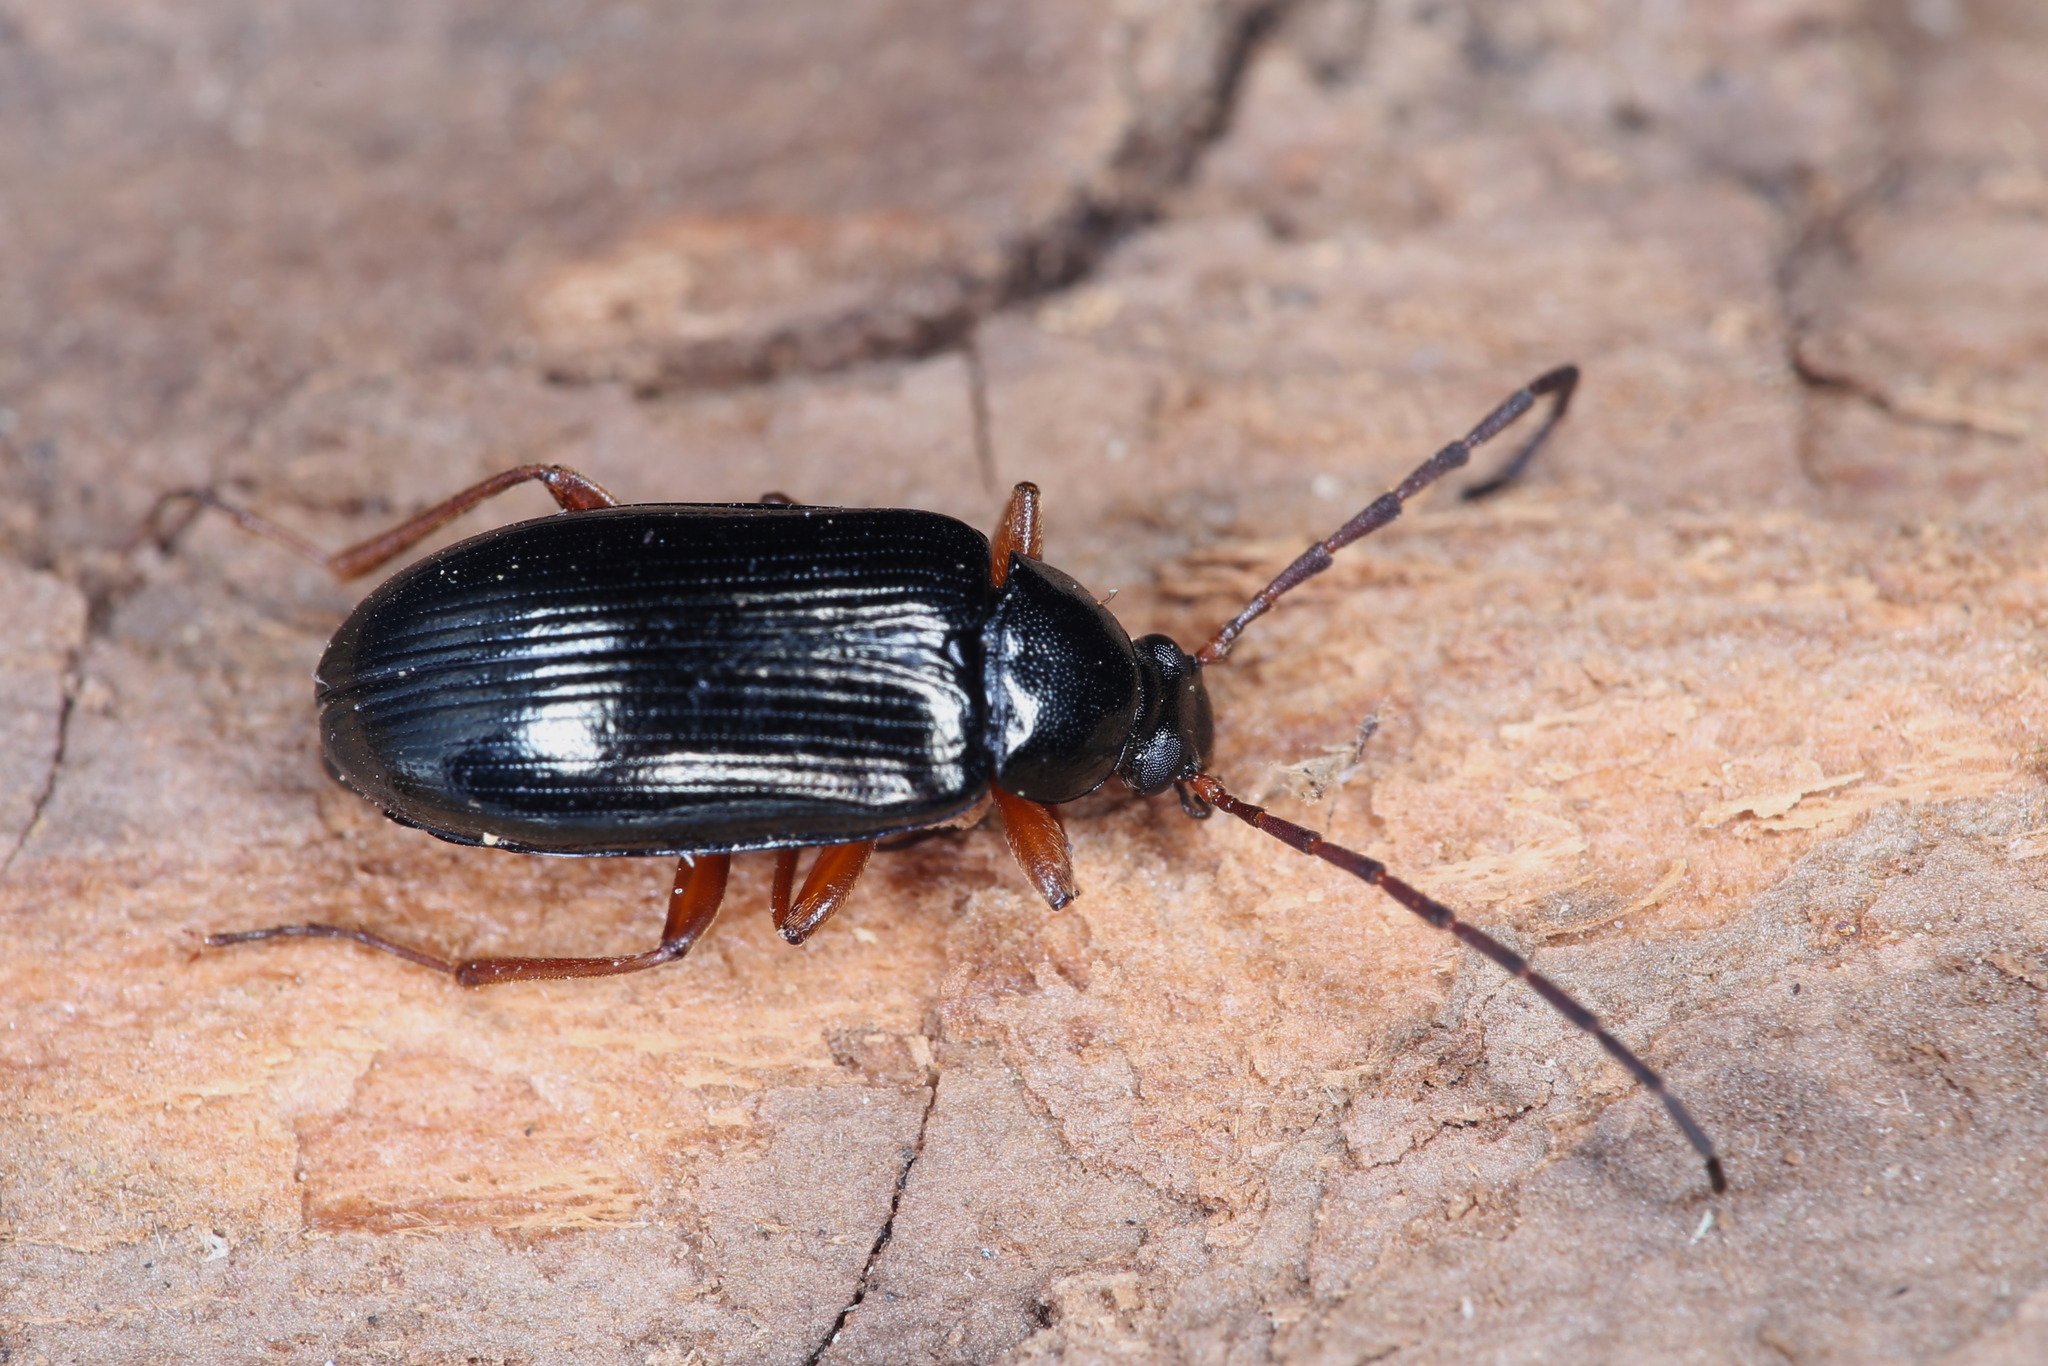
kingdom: Animalia
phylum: Arthropoda
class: Insecta
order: Coleoptera
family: Tenebrionidae
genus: Gonodera
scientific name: Gonodera luperus
